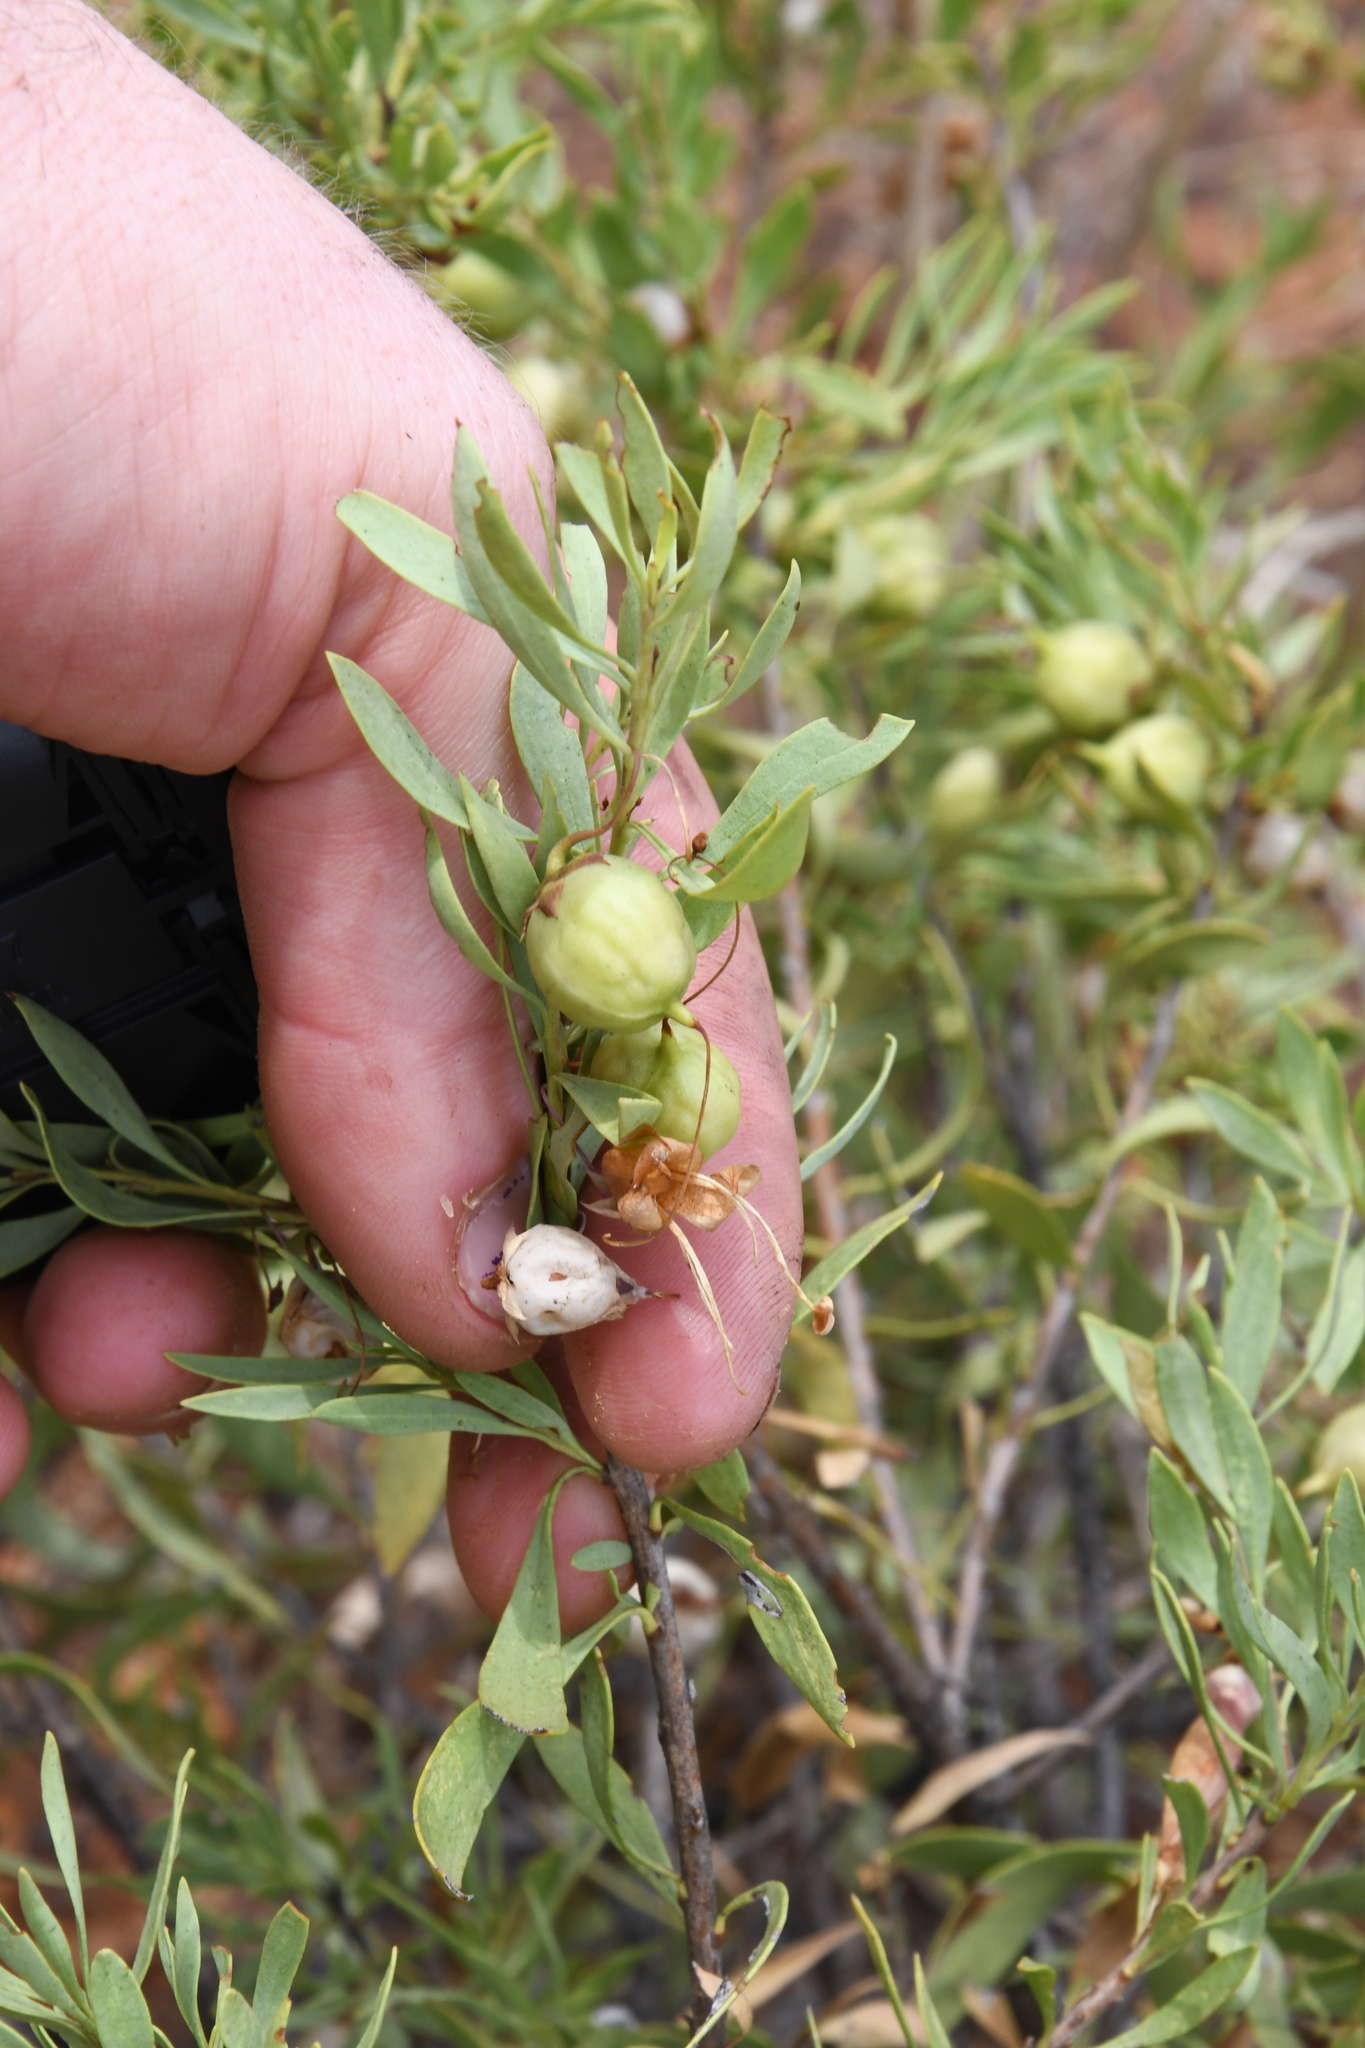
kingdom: Plantae
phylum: Tracheophyta
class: Magnoliopsida
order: Lamiales
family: Scrophulariaceae
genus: Eremophila
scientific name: Eremophila maculata
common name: Fuchsiabush
